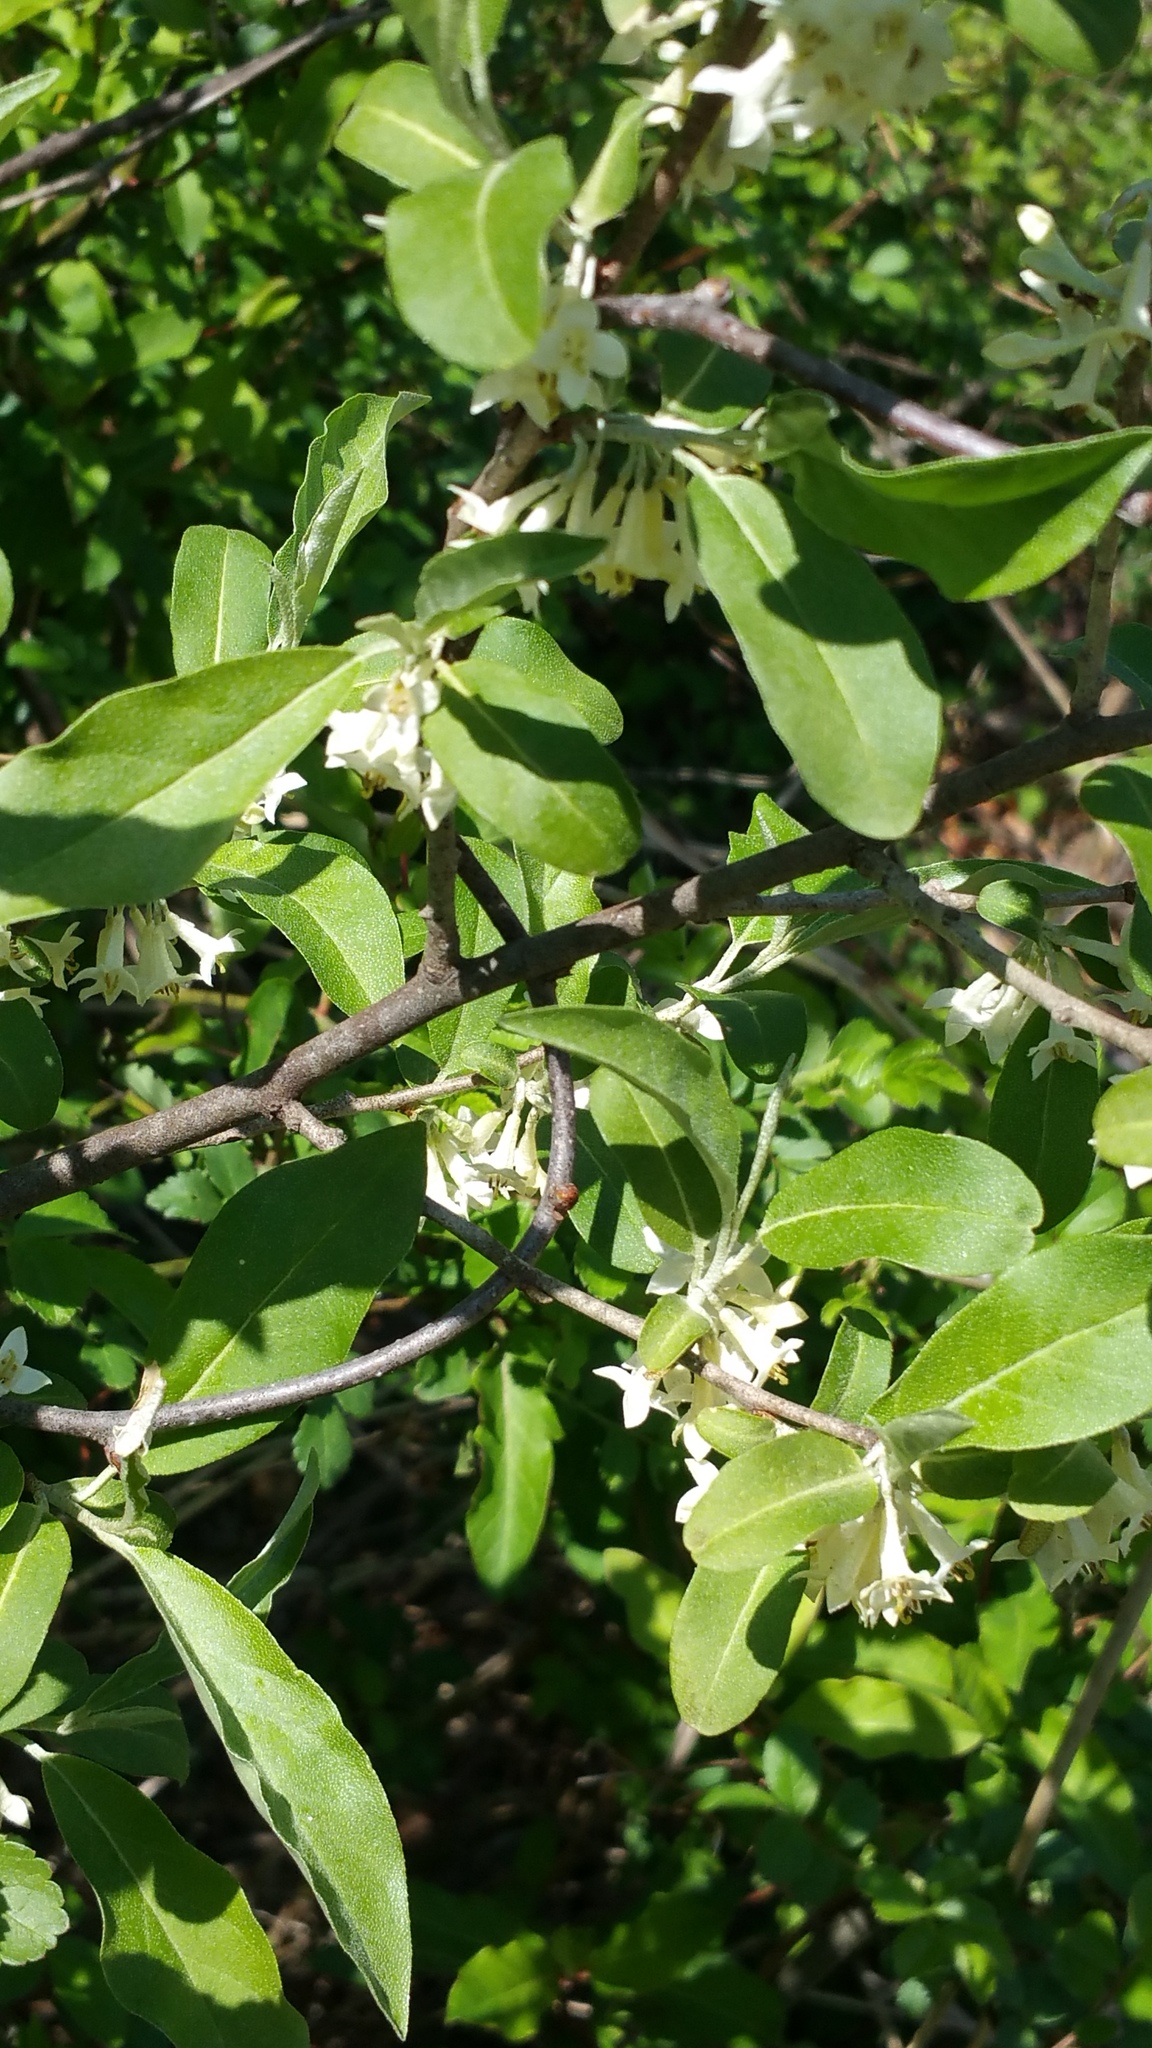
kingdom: Plantae
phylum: Tracheophyta
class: Magnoliopsida
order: Rosales
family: Elaeagnaceae
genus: Elaeagnus
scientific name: Elaeagnus umbellata
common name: Autumn olive
